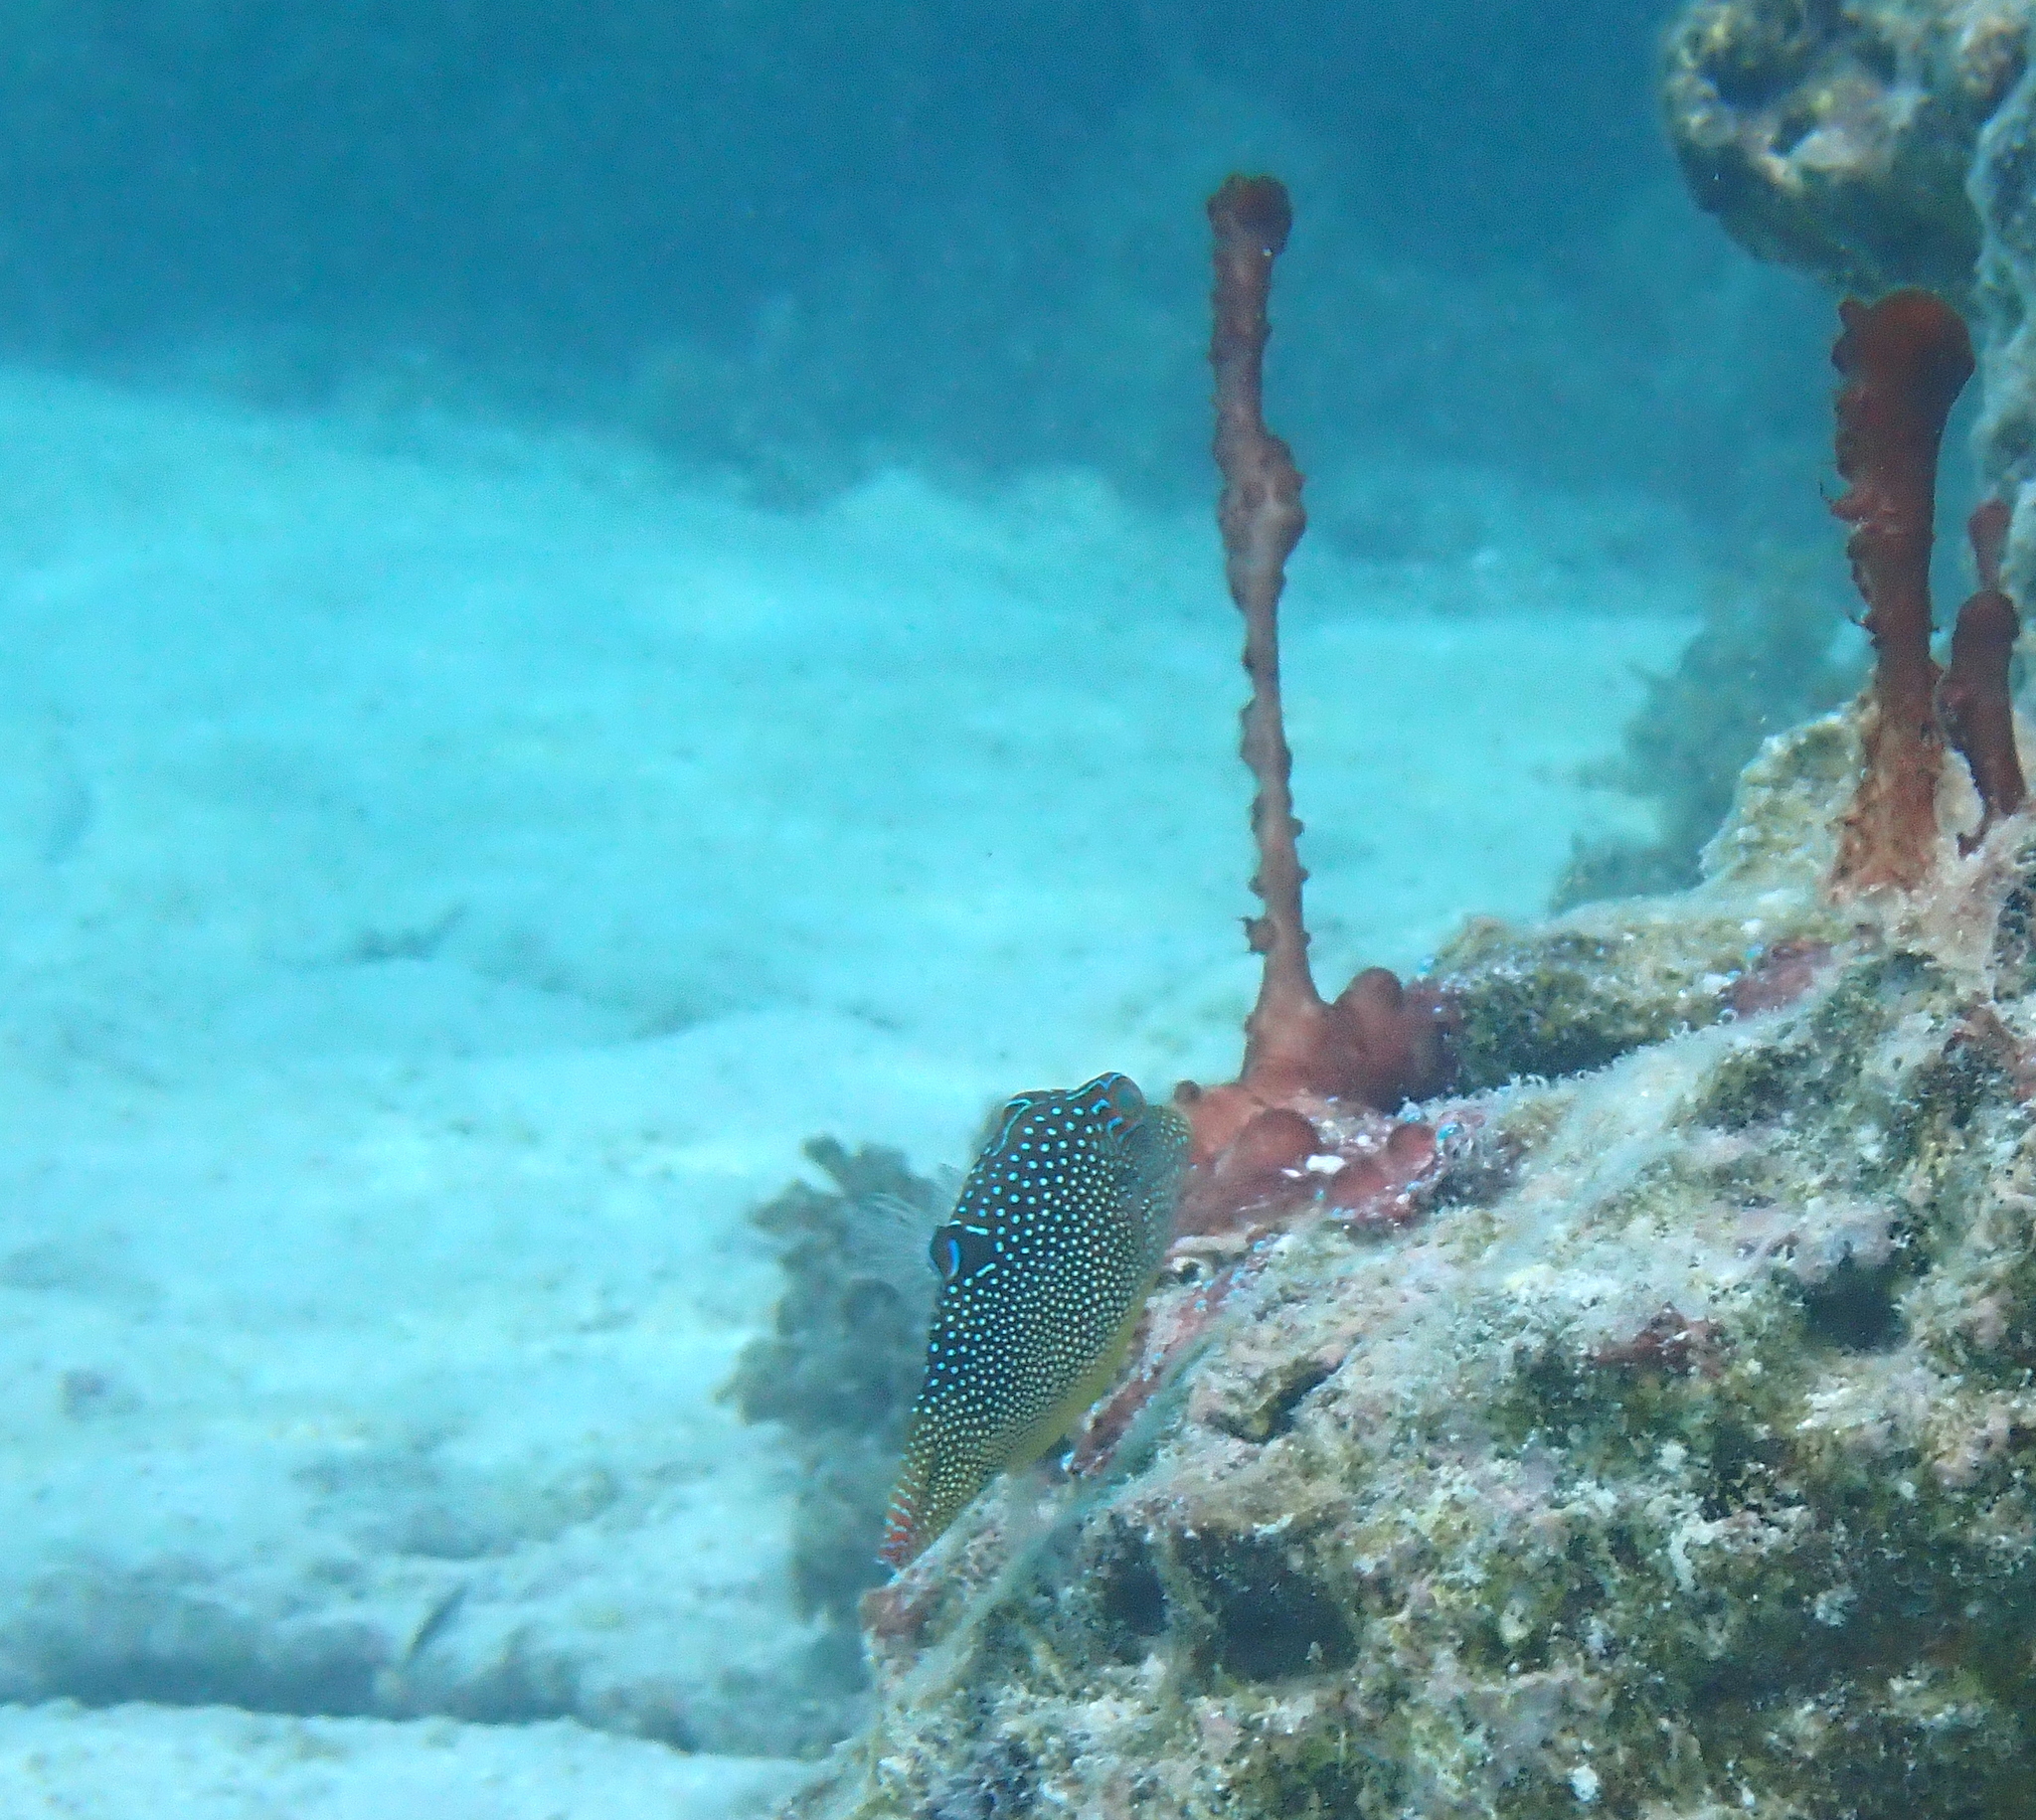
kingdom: Animalia
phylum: Chordata
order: Tetraodontiformes
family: Tetraodontidae
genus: Canthigaster
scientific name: Canthigaster solandri
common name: False-eye toby
